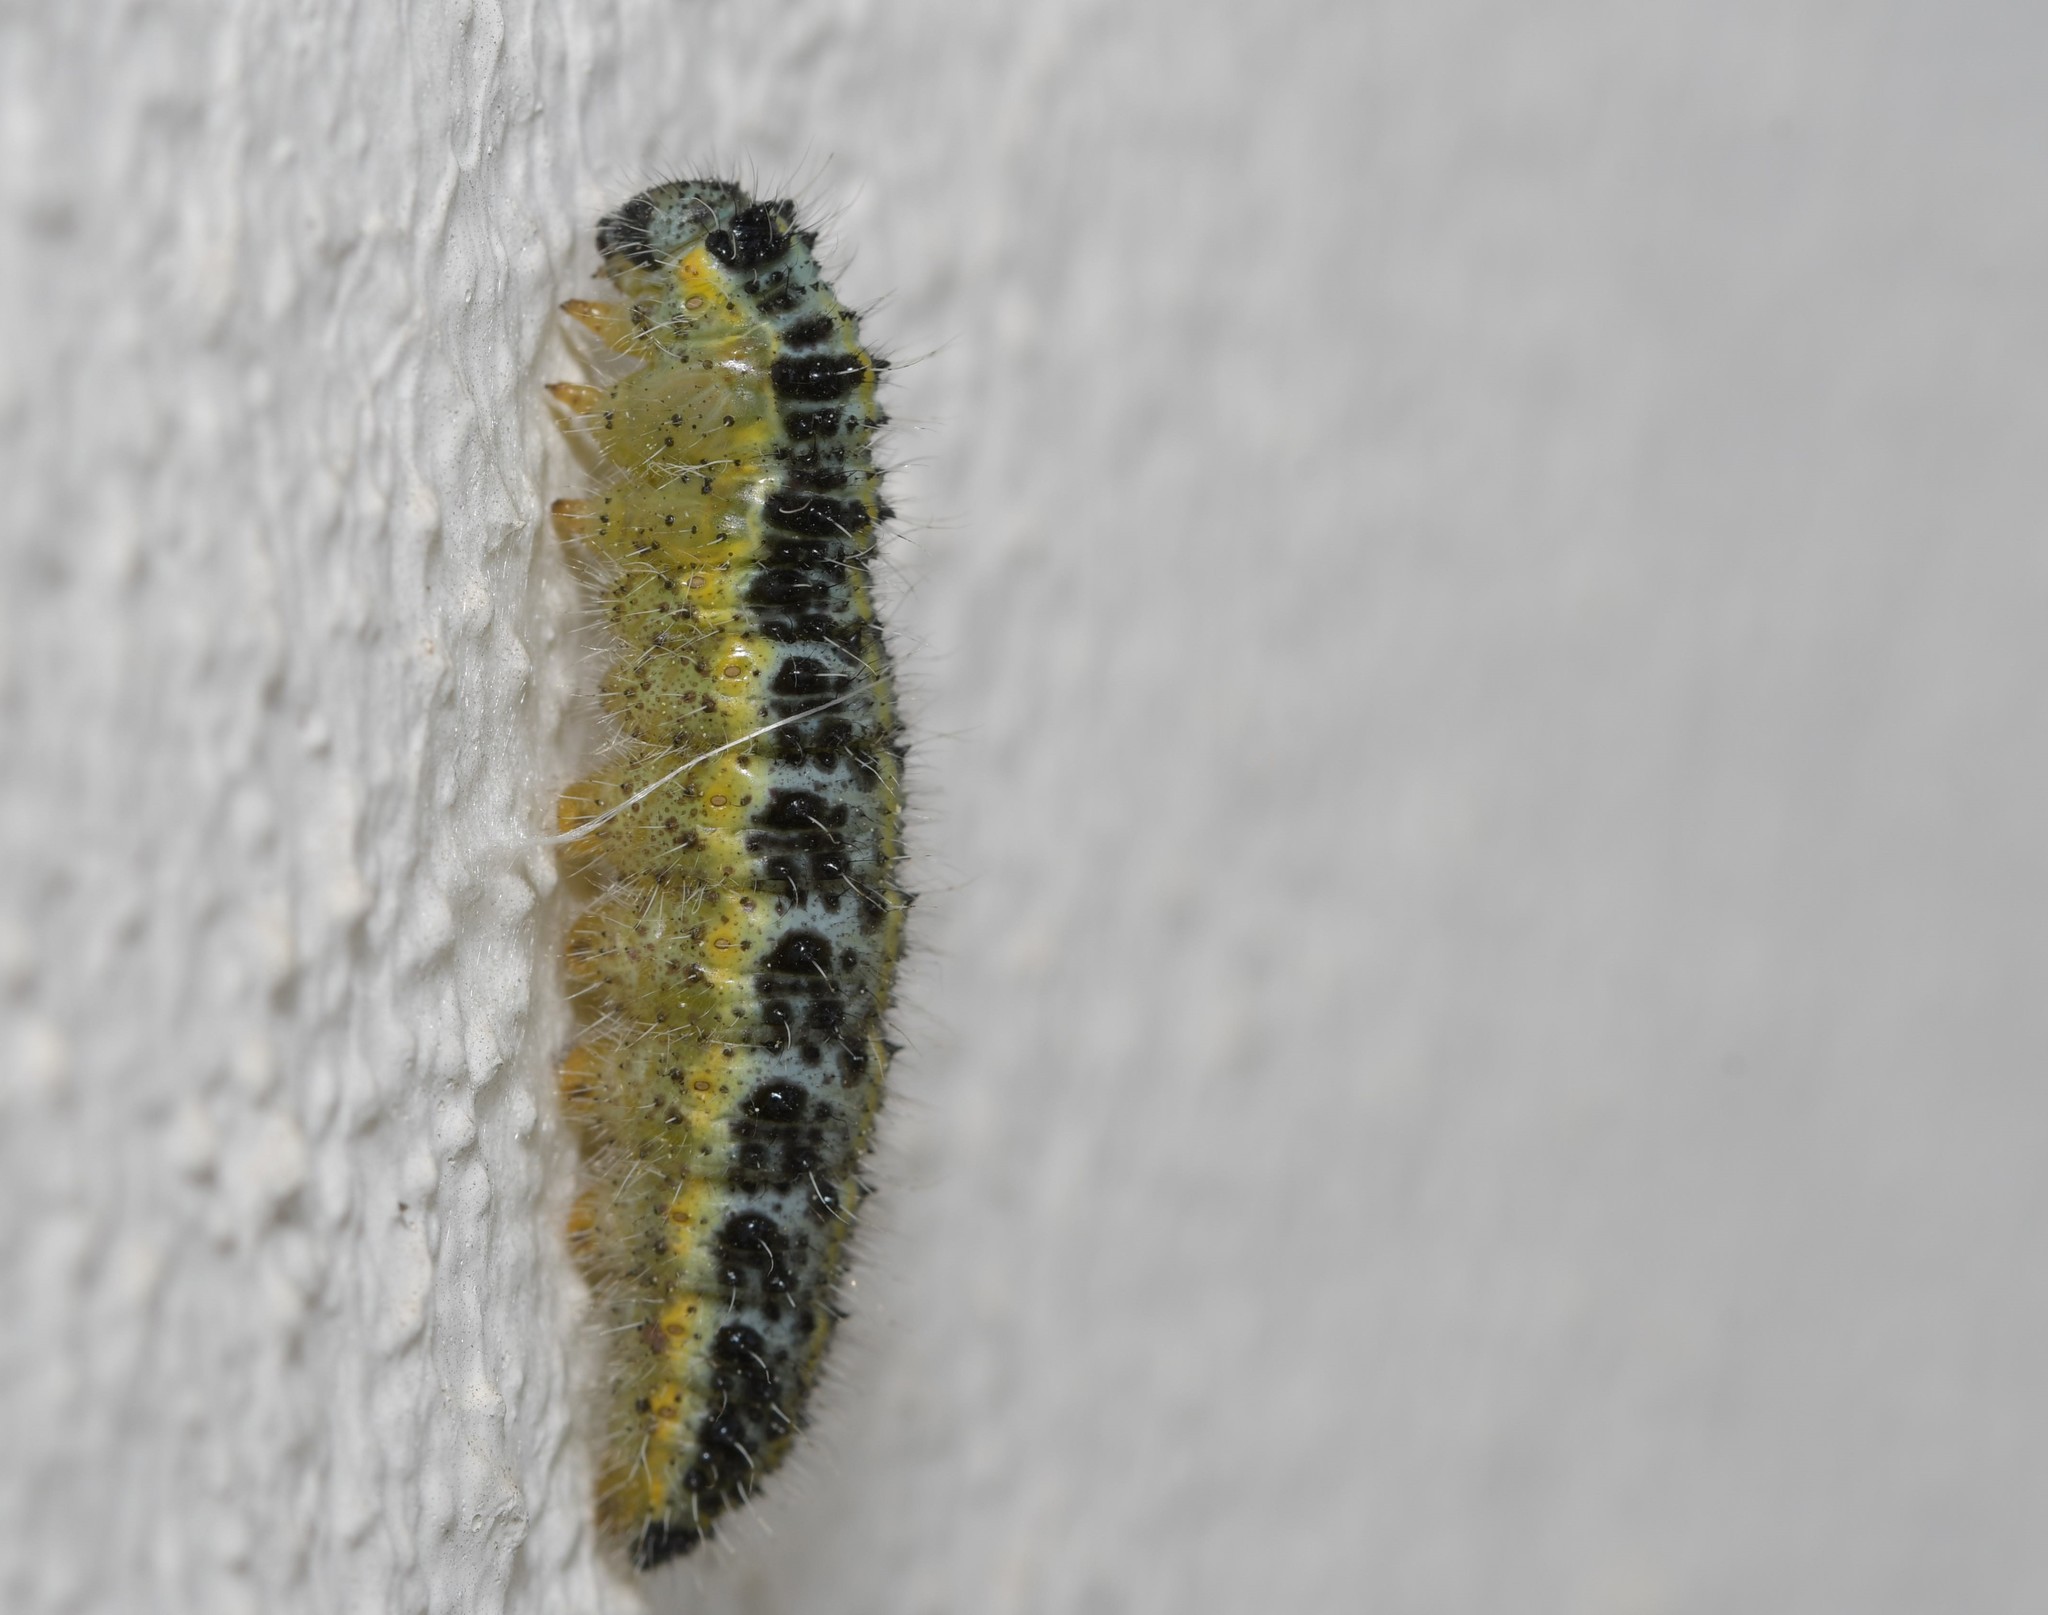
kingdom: Animalia
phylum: Arthropoda
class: Insecta
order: Lepidoptera
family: Pieridae
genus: Pieris
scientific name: Pieris brassicae
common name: Large white
